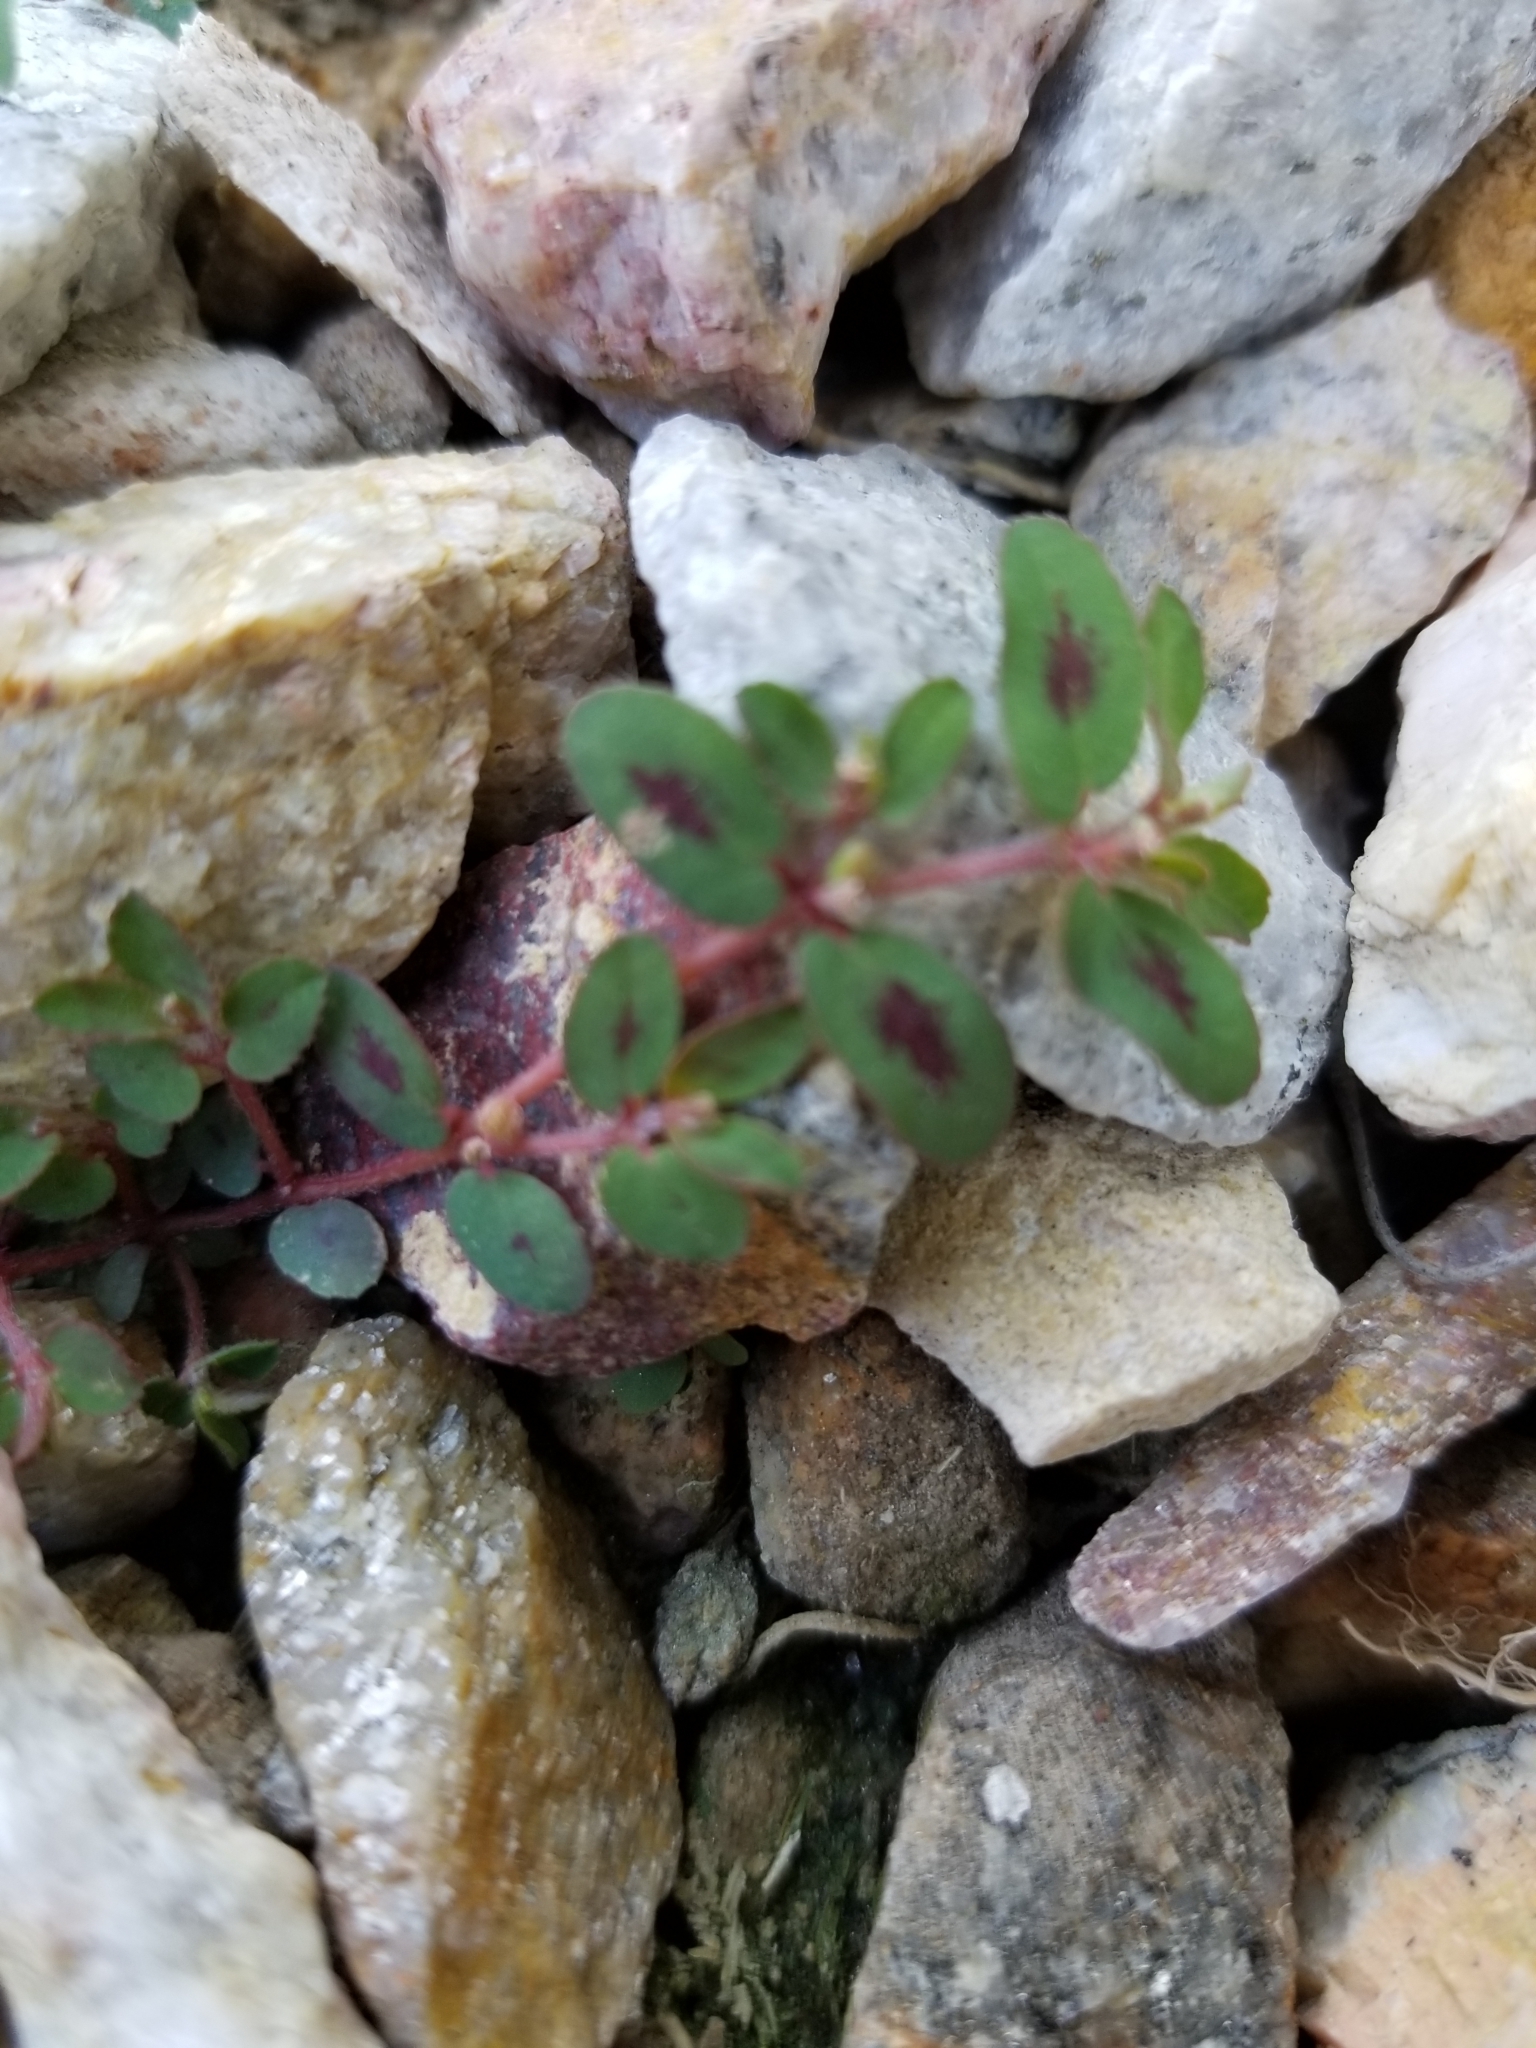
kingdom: Plantae
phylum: Tracheophyta
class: Magnoliopsida
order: Malpighiales
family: Euphorbiaceae
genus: Euphorbia
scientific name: Euphorbia maculata
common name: Spotted spurge
